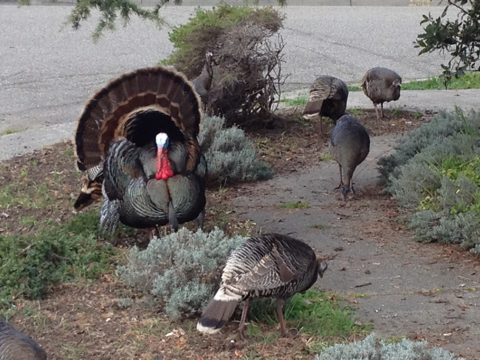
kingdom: Animalia
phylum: Chordata
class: Aves
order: Galliformes
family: Phasianidae
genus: Meleagris
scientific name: Meleagris gallopavo
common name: Wild turkey
